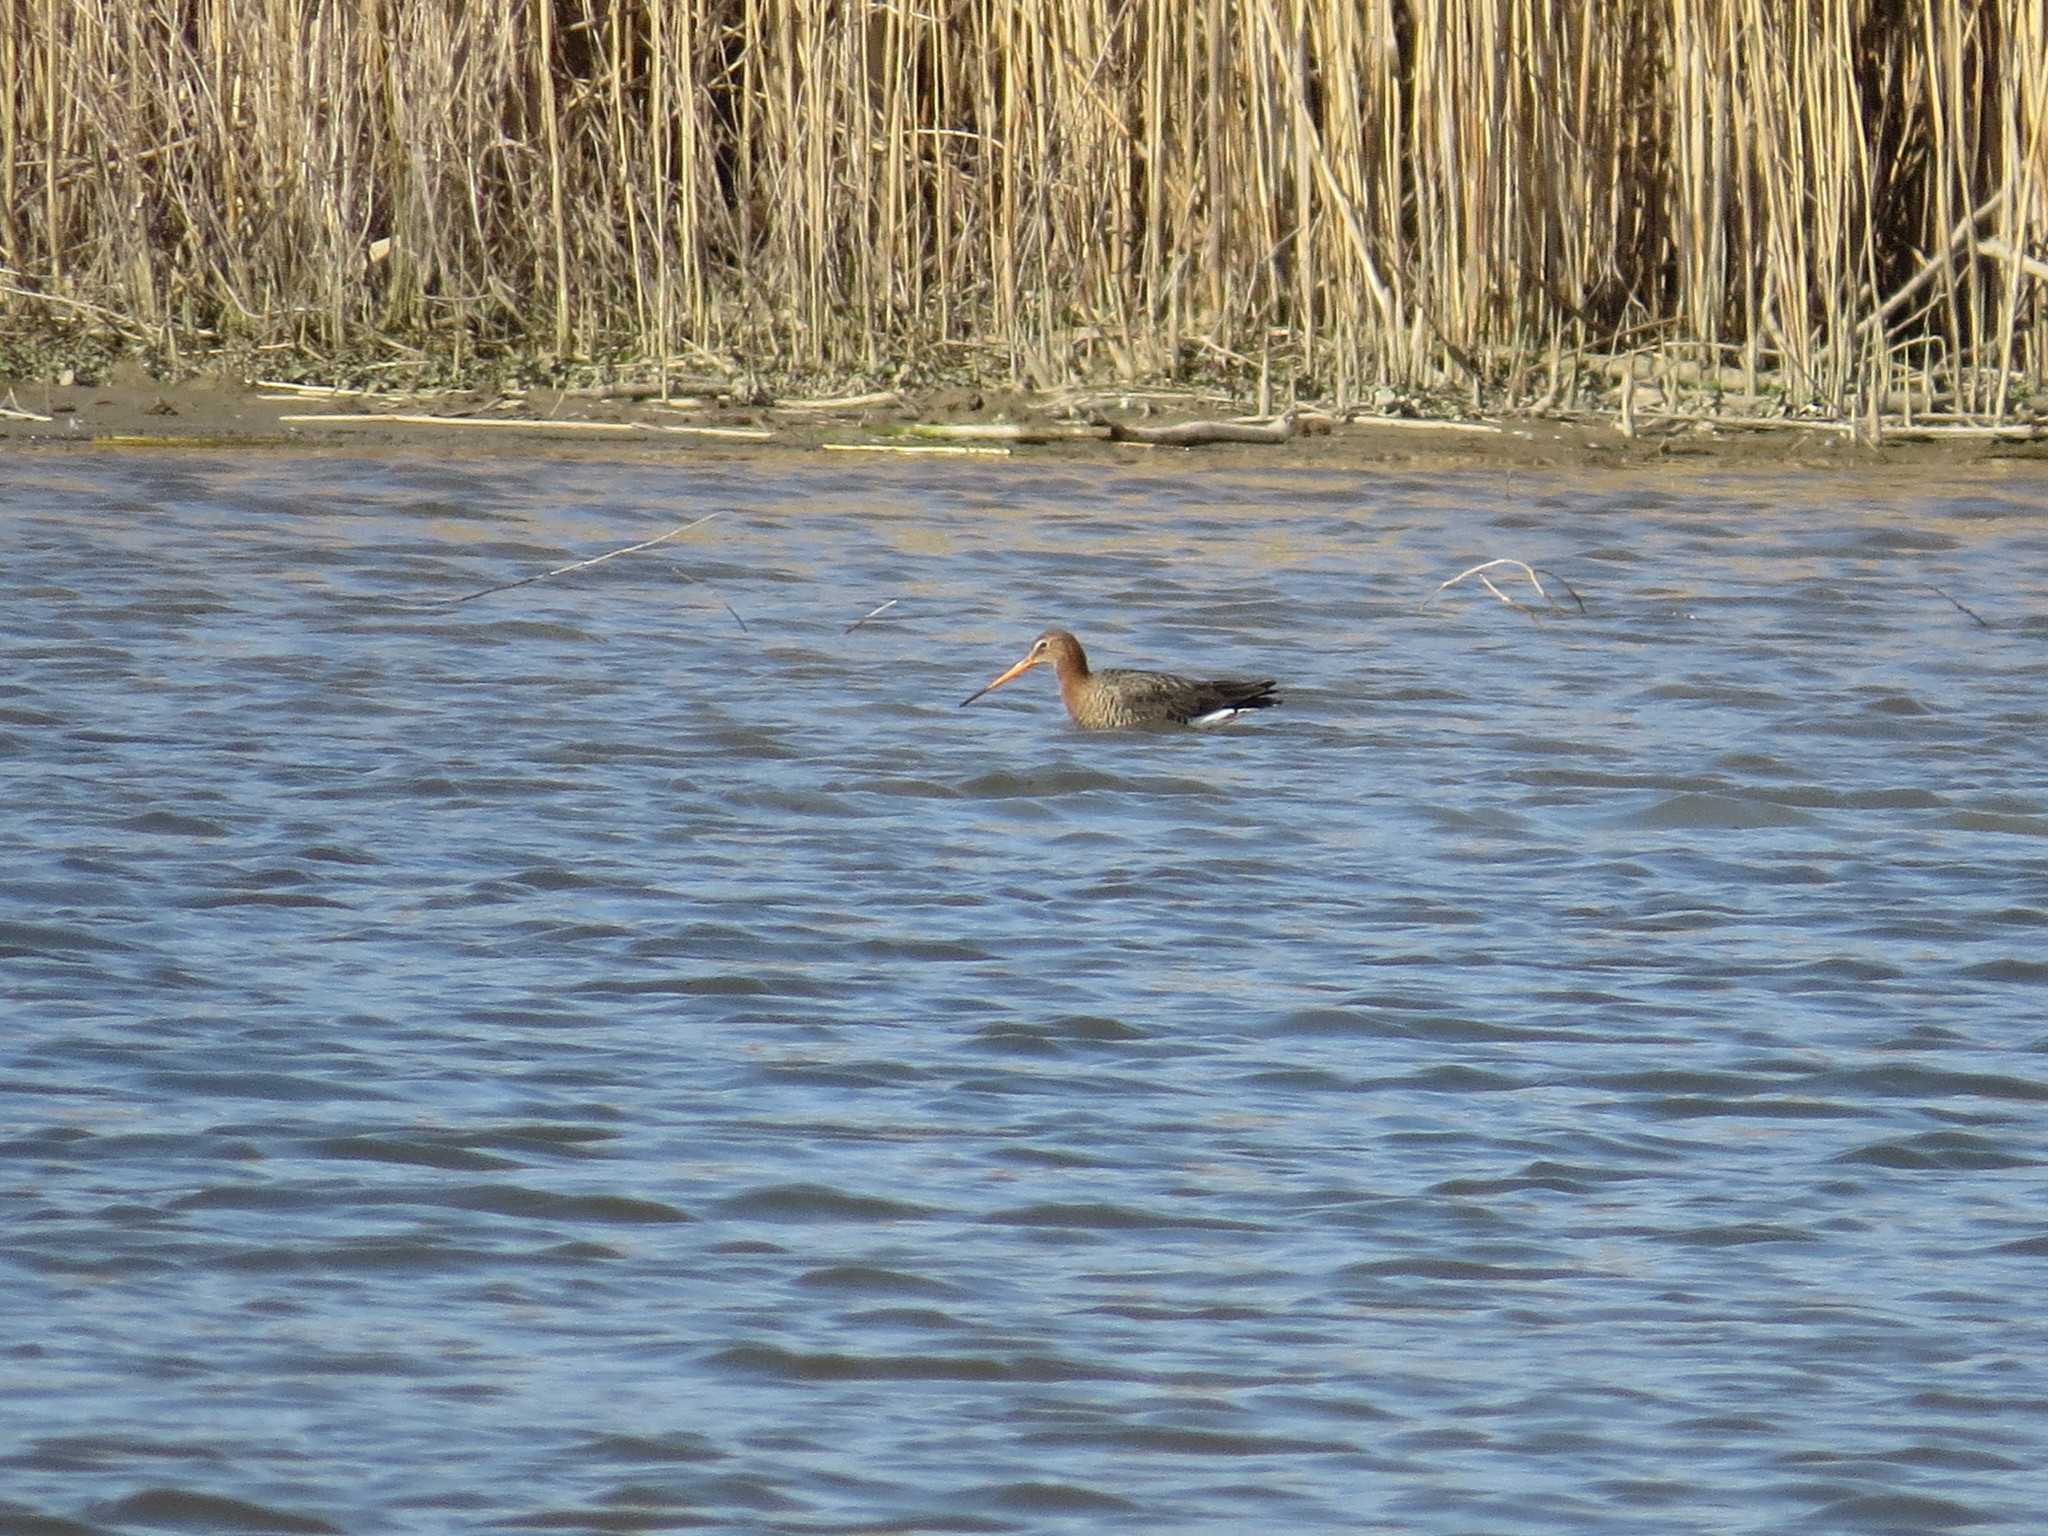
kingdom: Animalia
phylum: Chordata
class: Aves
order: Charadriiformes
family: Scolopacidae
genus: Limosa
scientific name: Limosa limosa
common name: Black-tailed godwit
